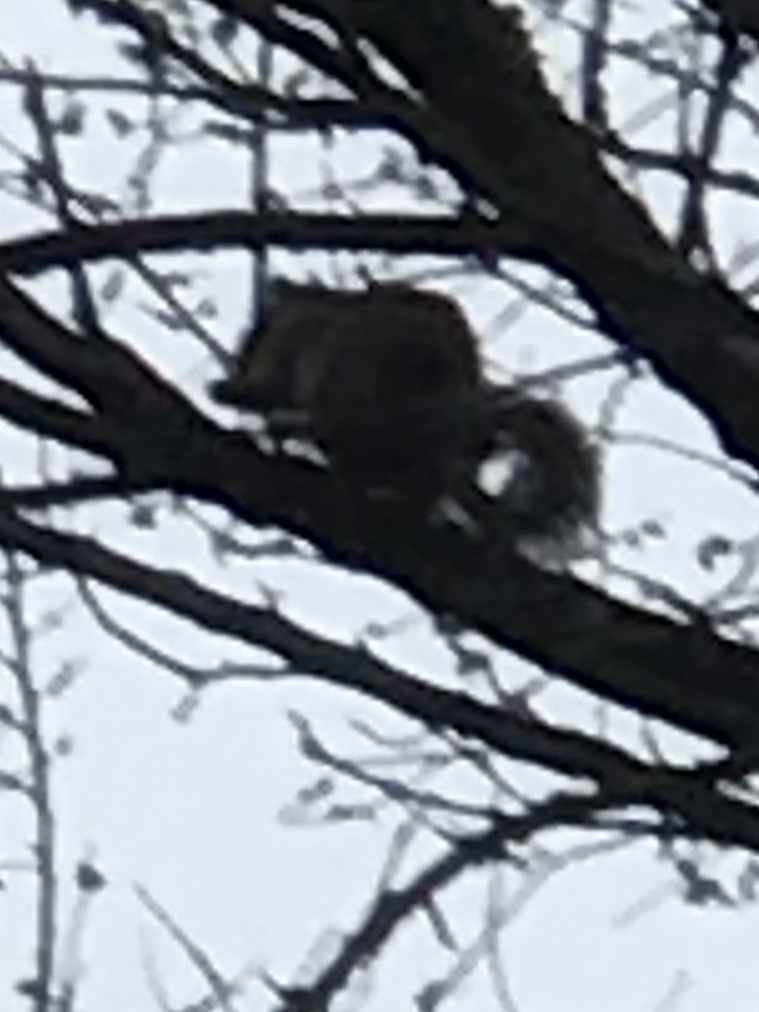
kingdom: Animalia
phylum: Chordata
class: Mammalia
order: Rodentia
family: Sciuridae
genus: Sciurus
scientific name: Sciurus carolinensis
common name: Eastern gray squirrel
